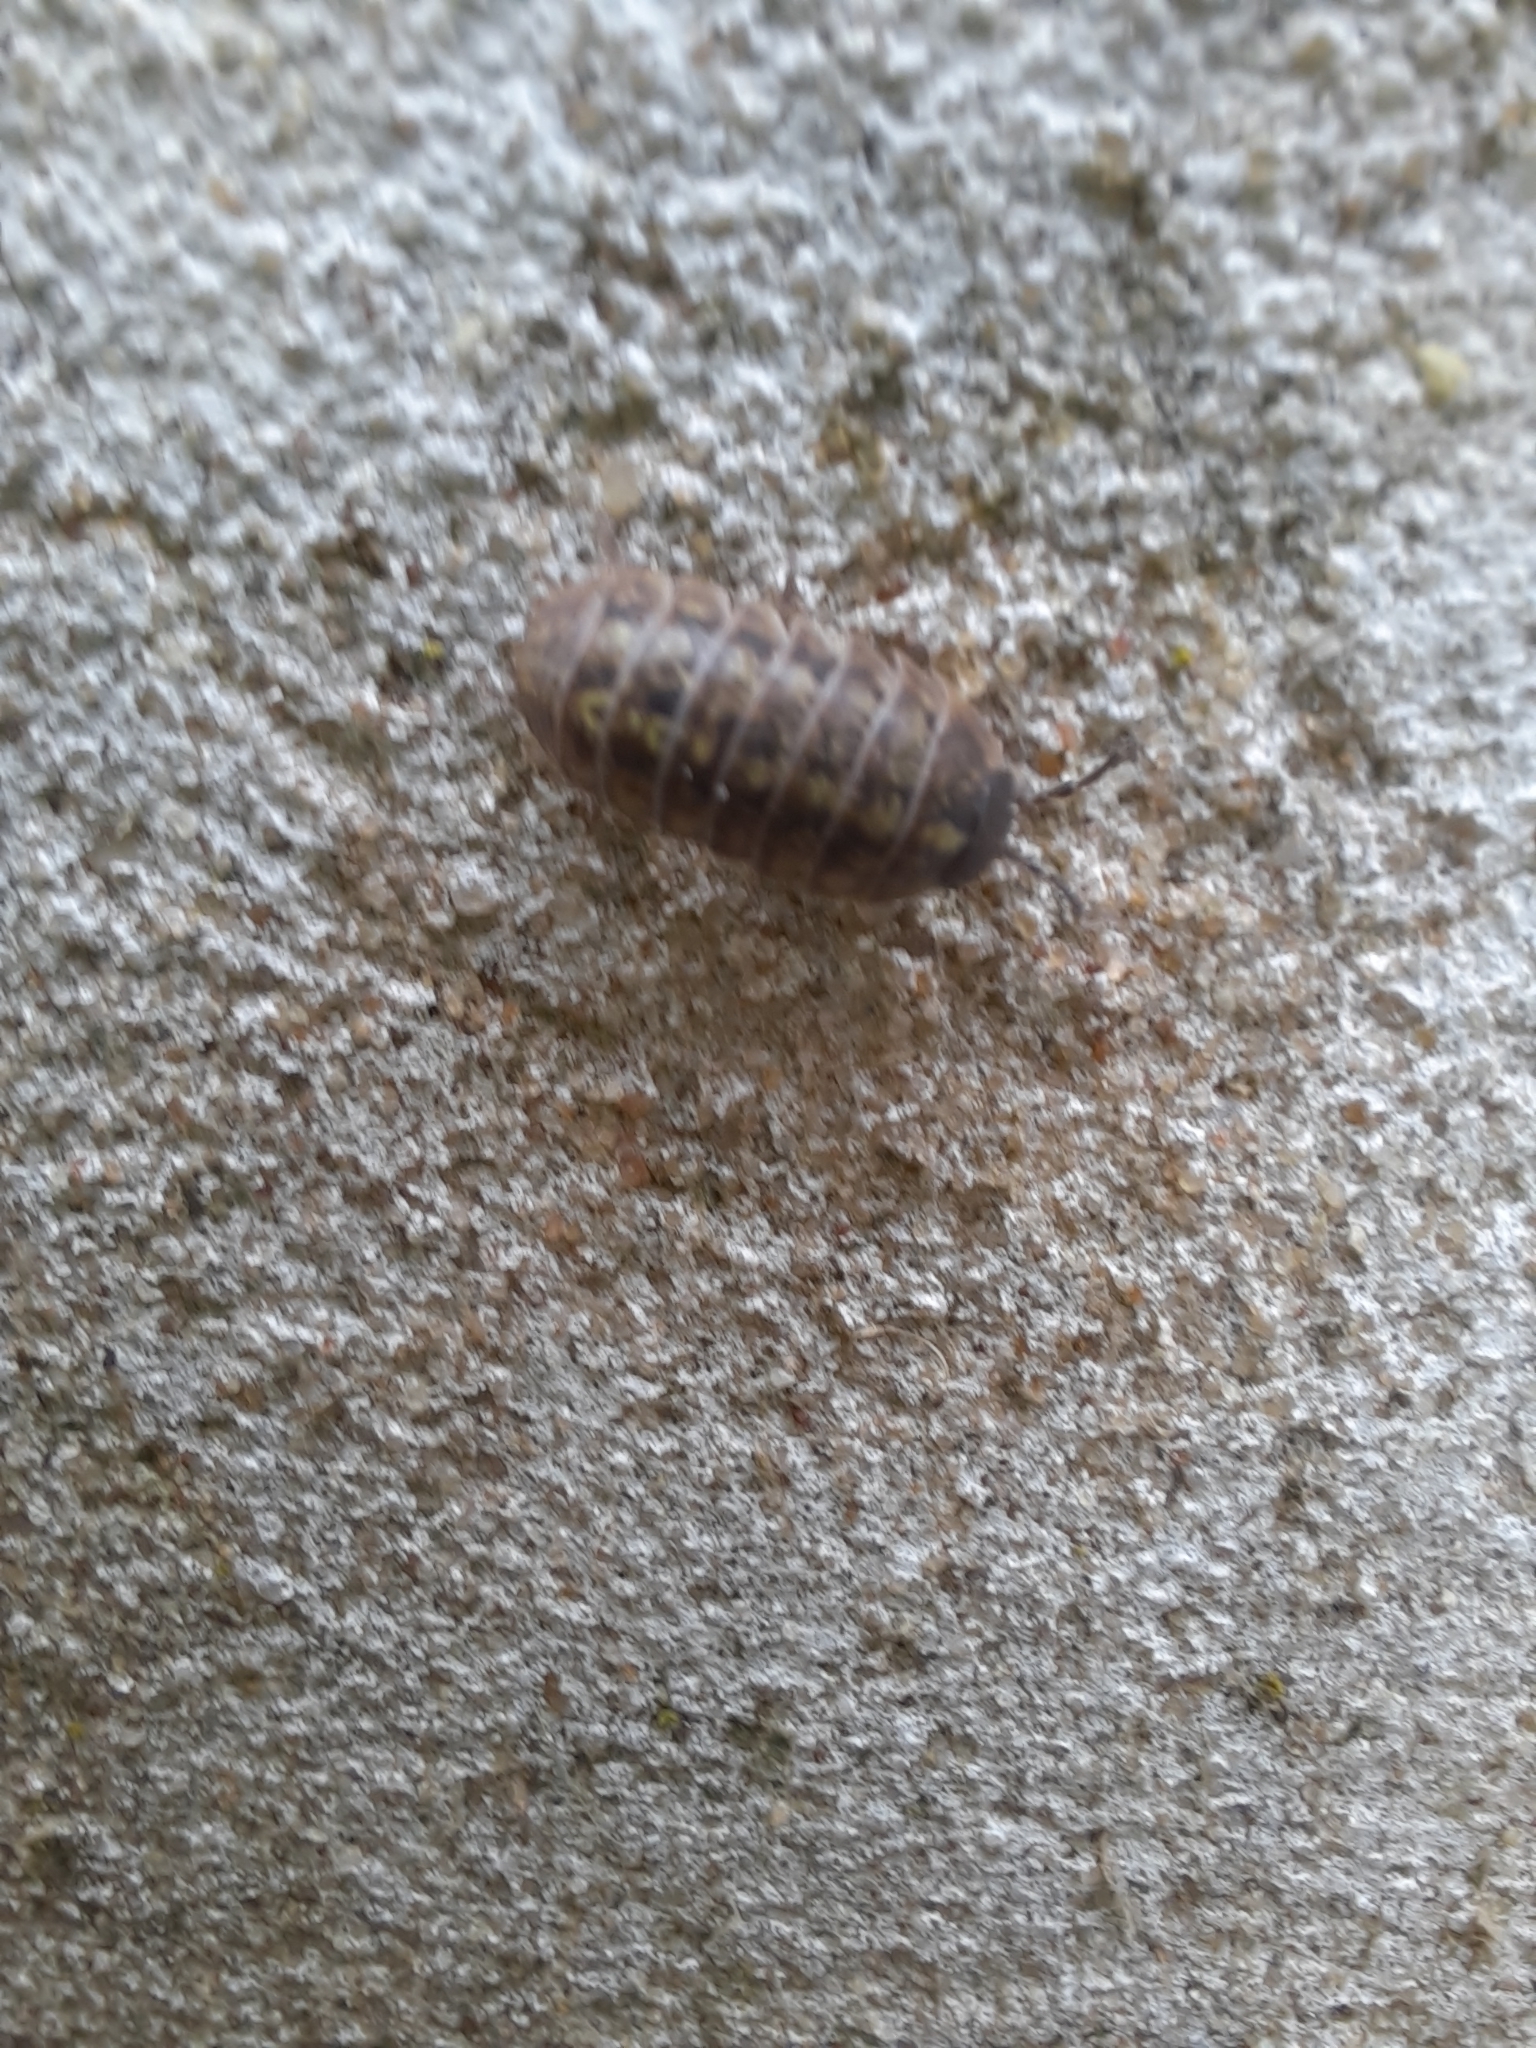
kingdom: Animalia
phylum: Arthropoda
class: Malacostraca
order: Isopoda
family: Armadillidiidae
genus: Armadillidium
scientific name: Armadillidium vulgare
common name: Common pill woodlouse
